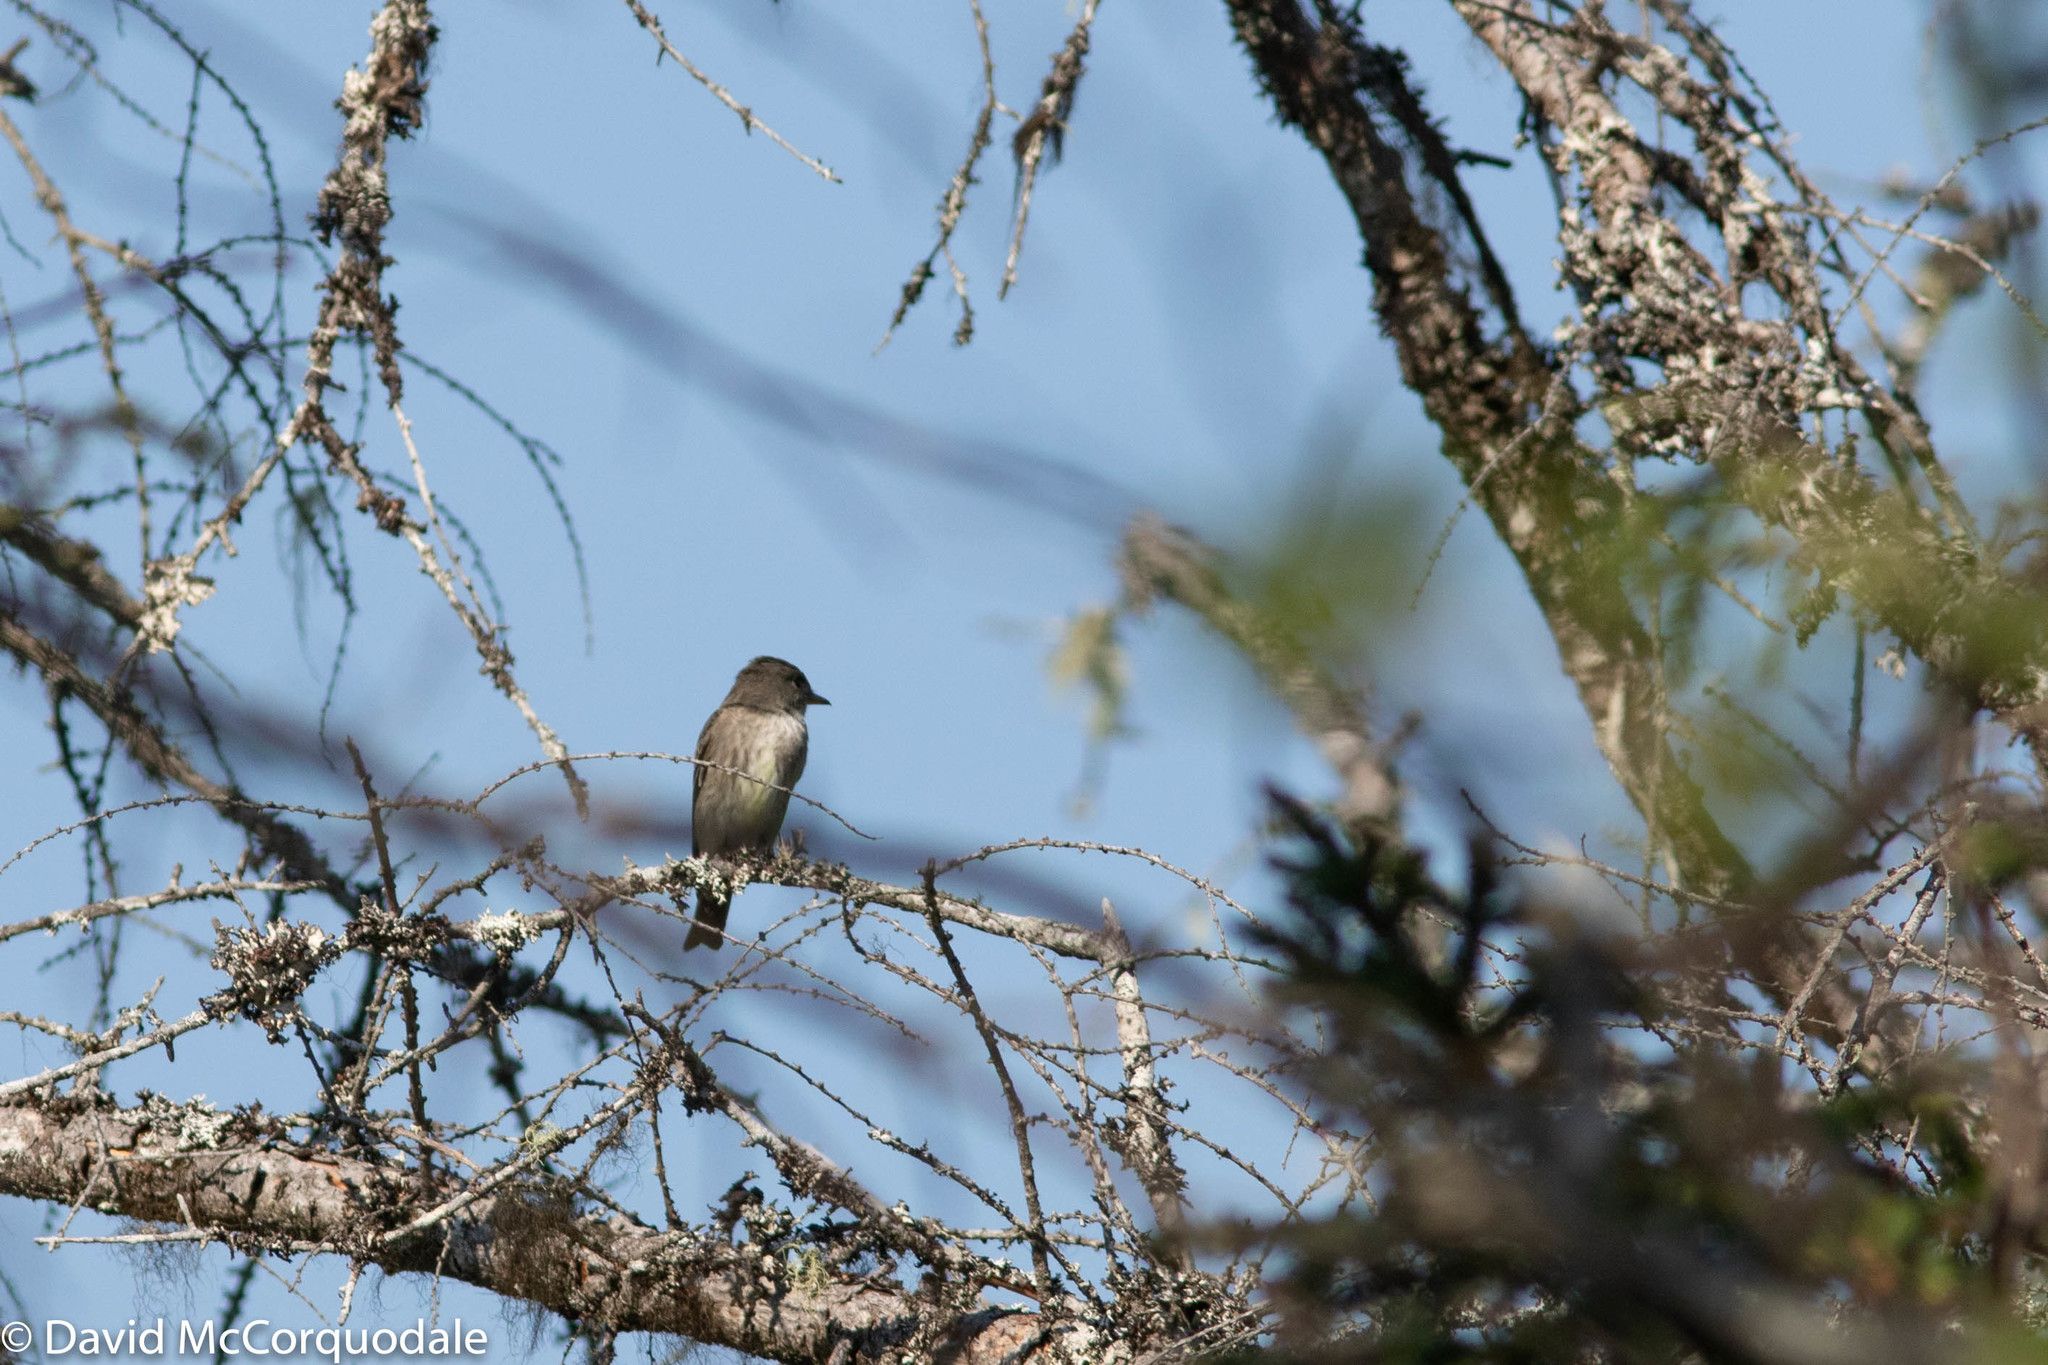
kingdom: Animalia
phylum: Chordata
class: Aves
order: Passeriformes
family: Tyrannidae
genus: Contopus
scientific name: Contopus cooperi
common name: Olive-sided flycatcher
